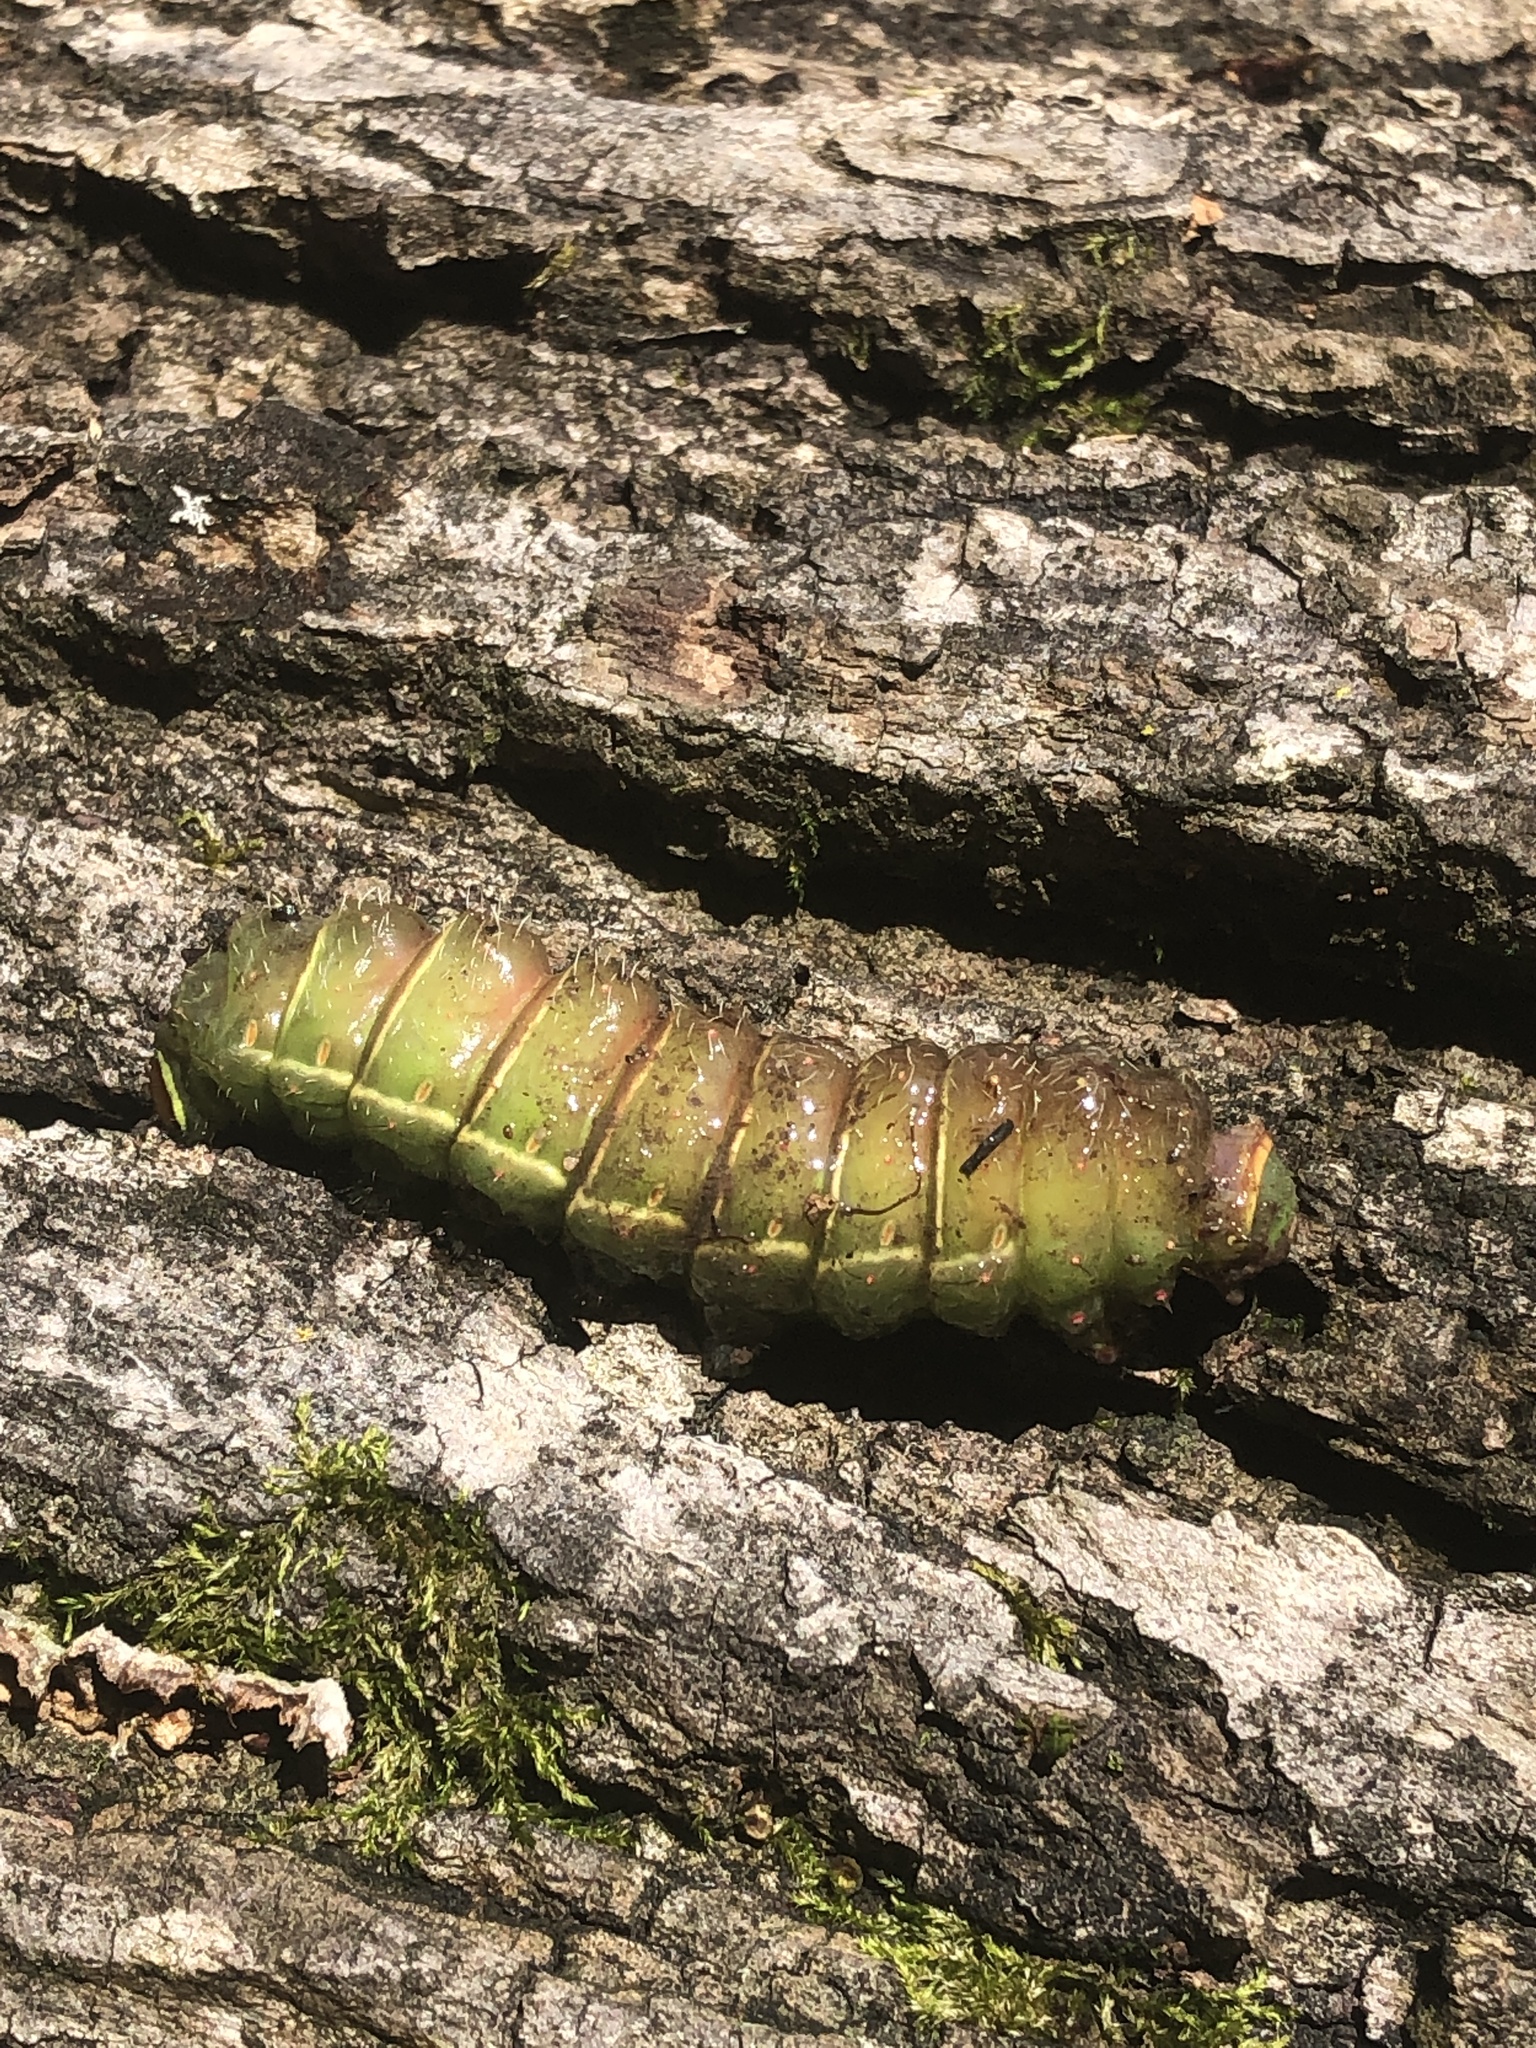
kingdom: Animalia
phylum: Arthropoda
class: Insecta
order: Lepidoptera
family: Saturniidae
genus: Actias
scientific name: Actias luna
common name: Luna moth
